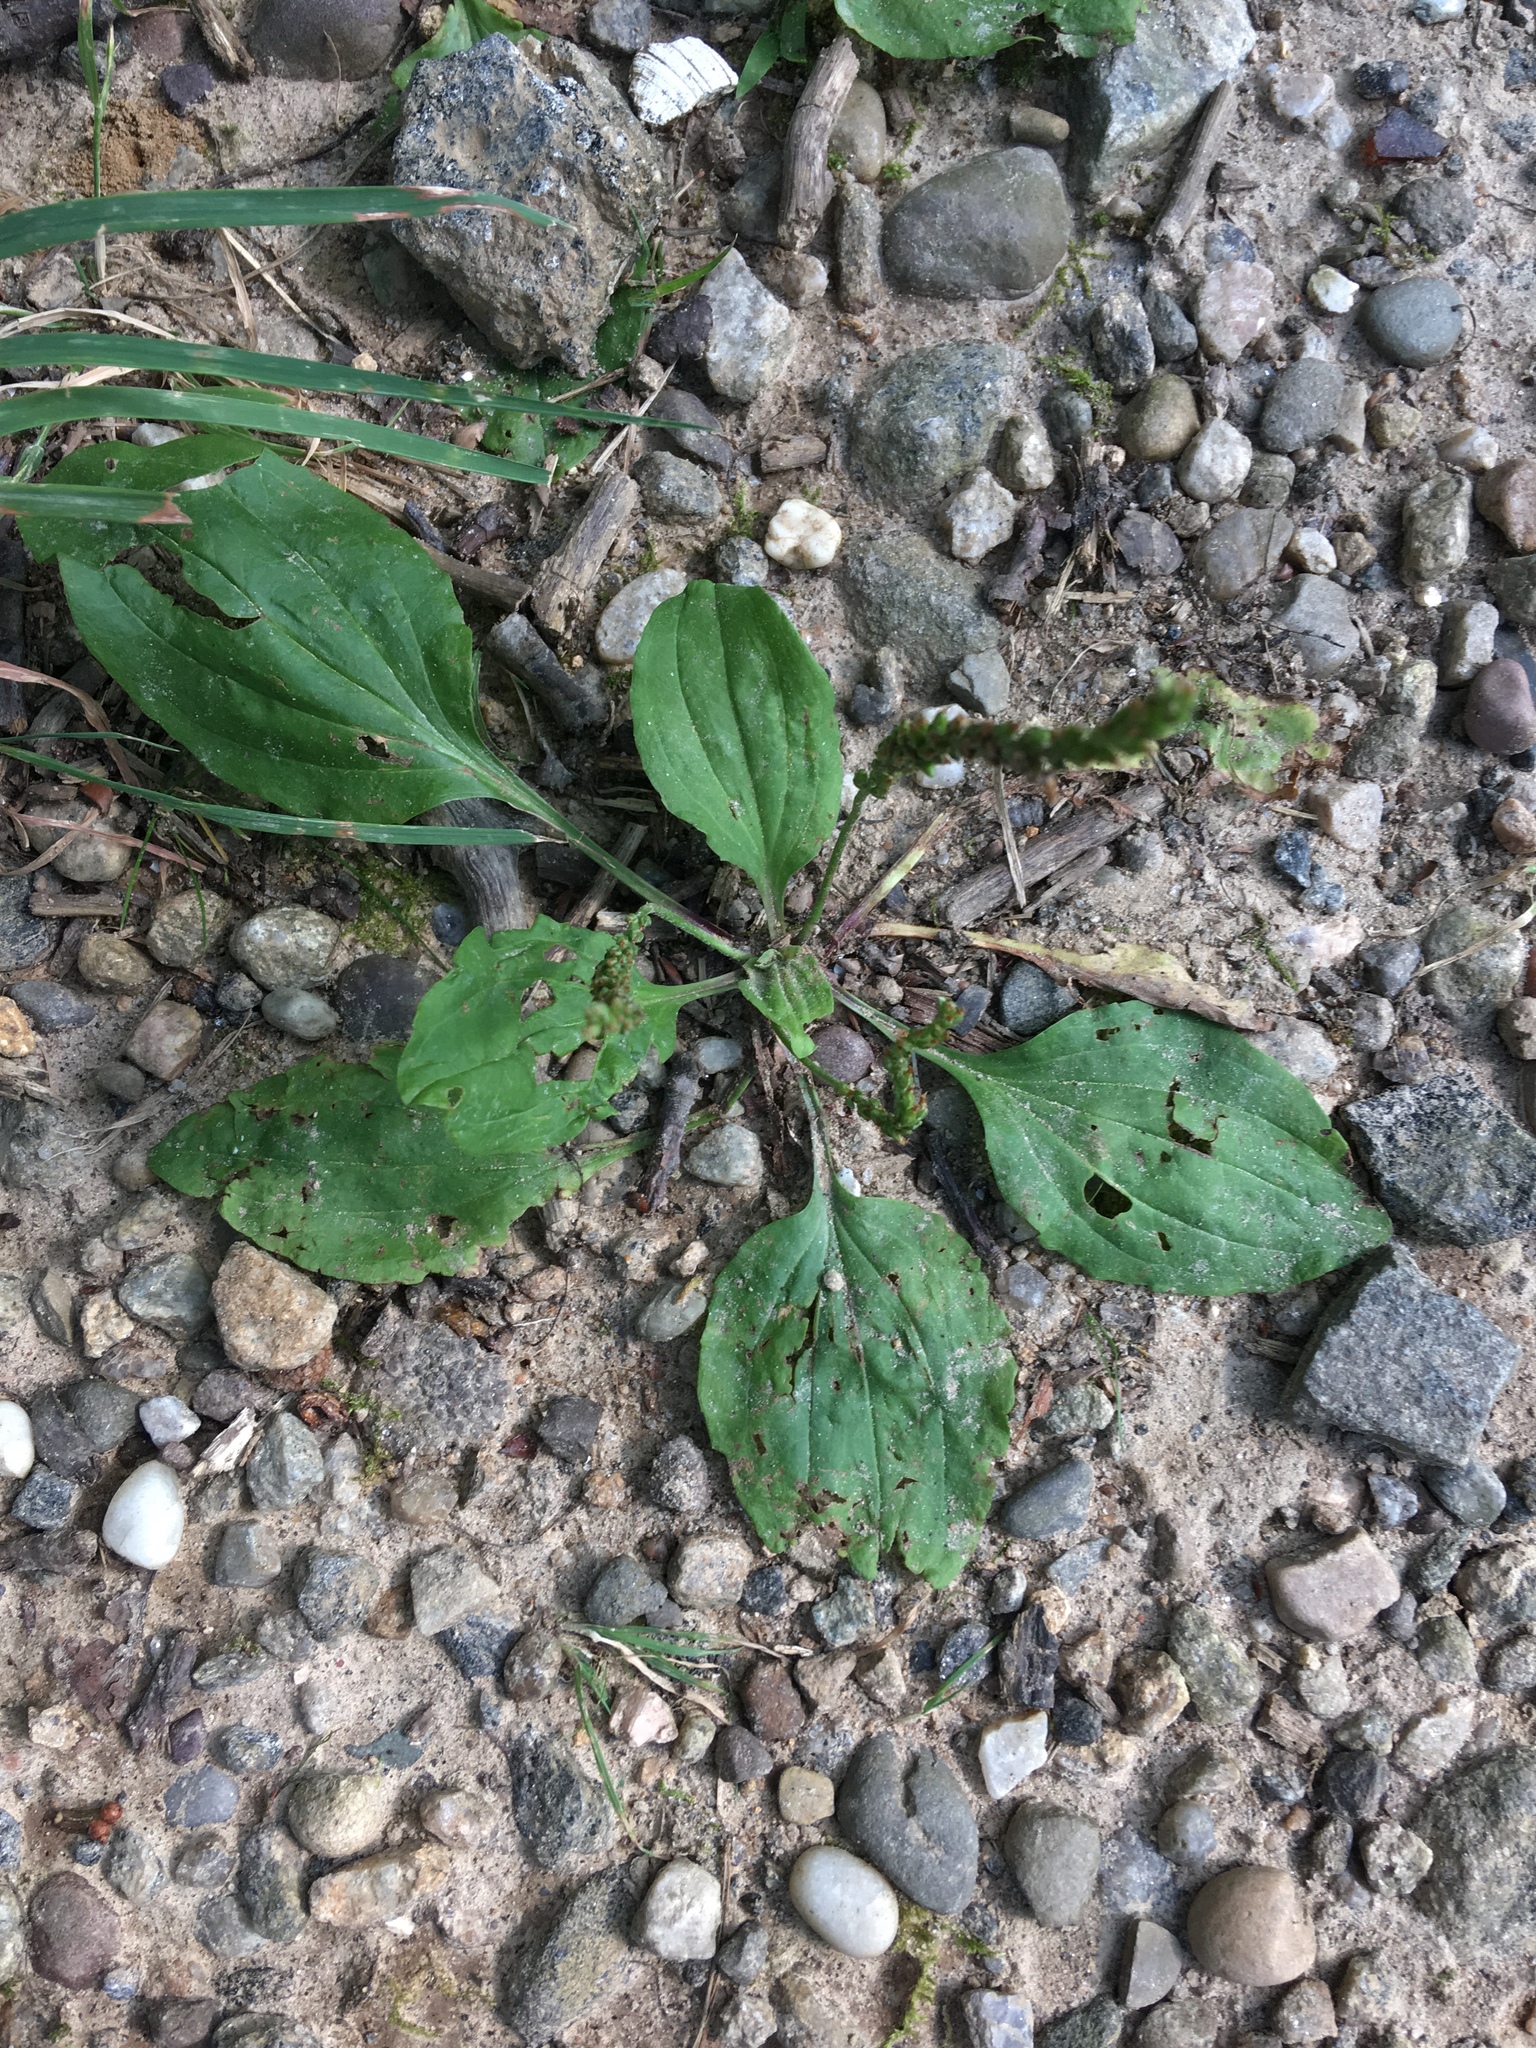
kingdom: Plantae
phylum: Tracheophyta
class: Magnoliopsida
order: Lamiales
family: Plantaginaceae
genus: Plantago
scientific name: Plantago rugelii
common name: American plantain
